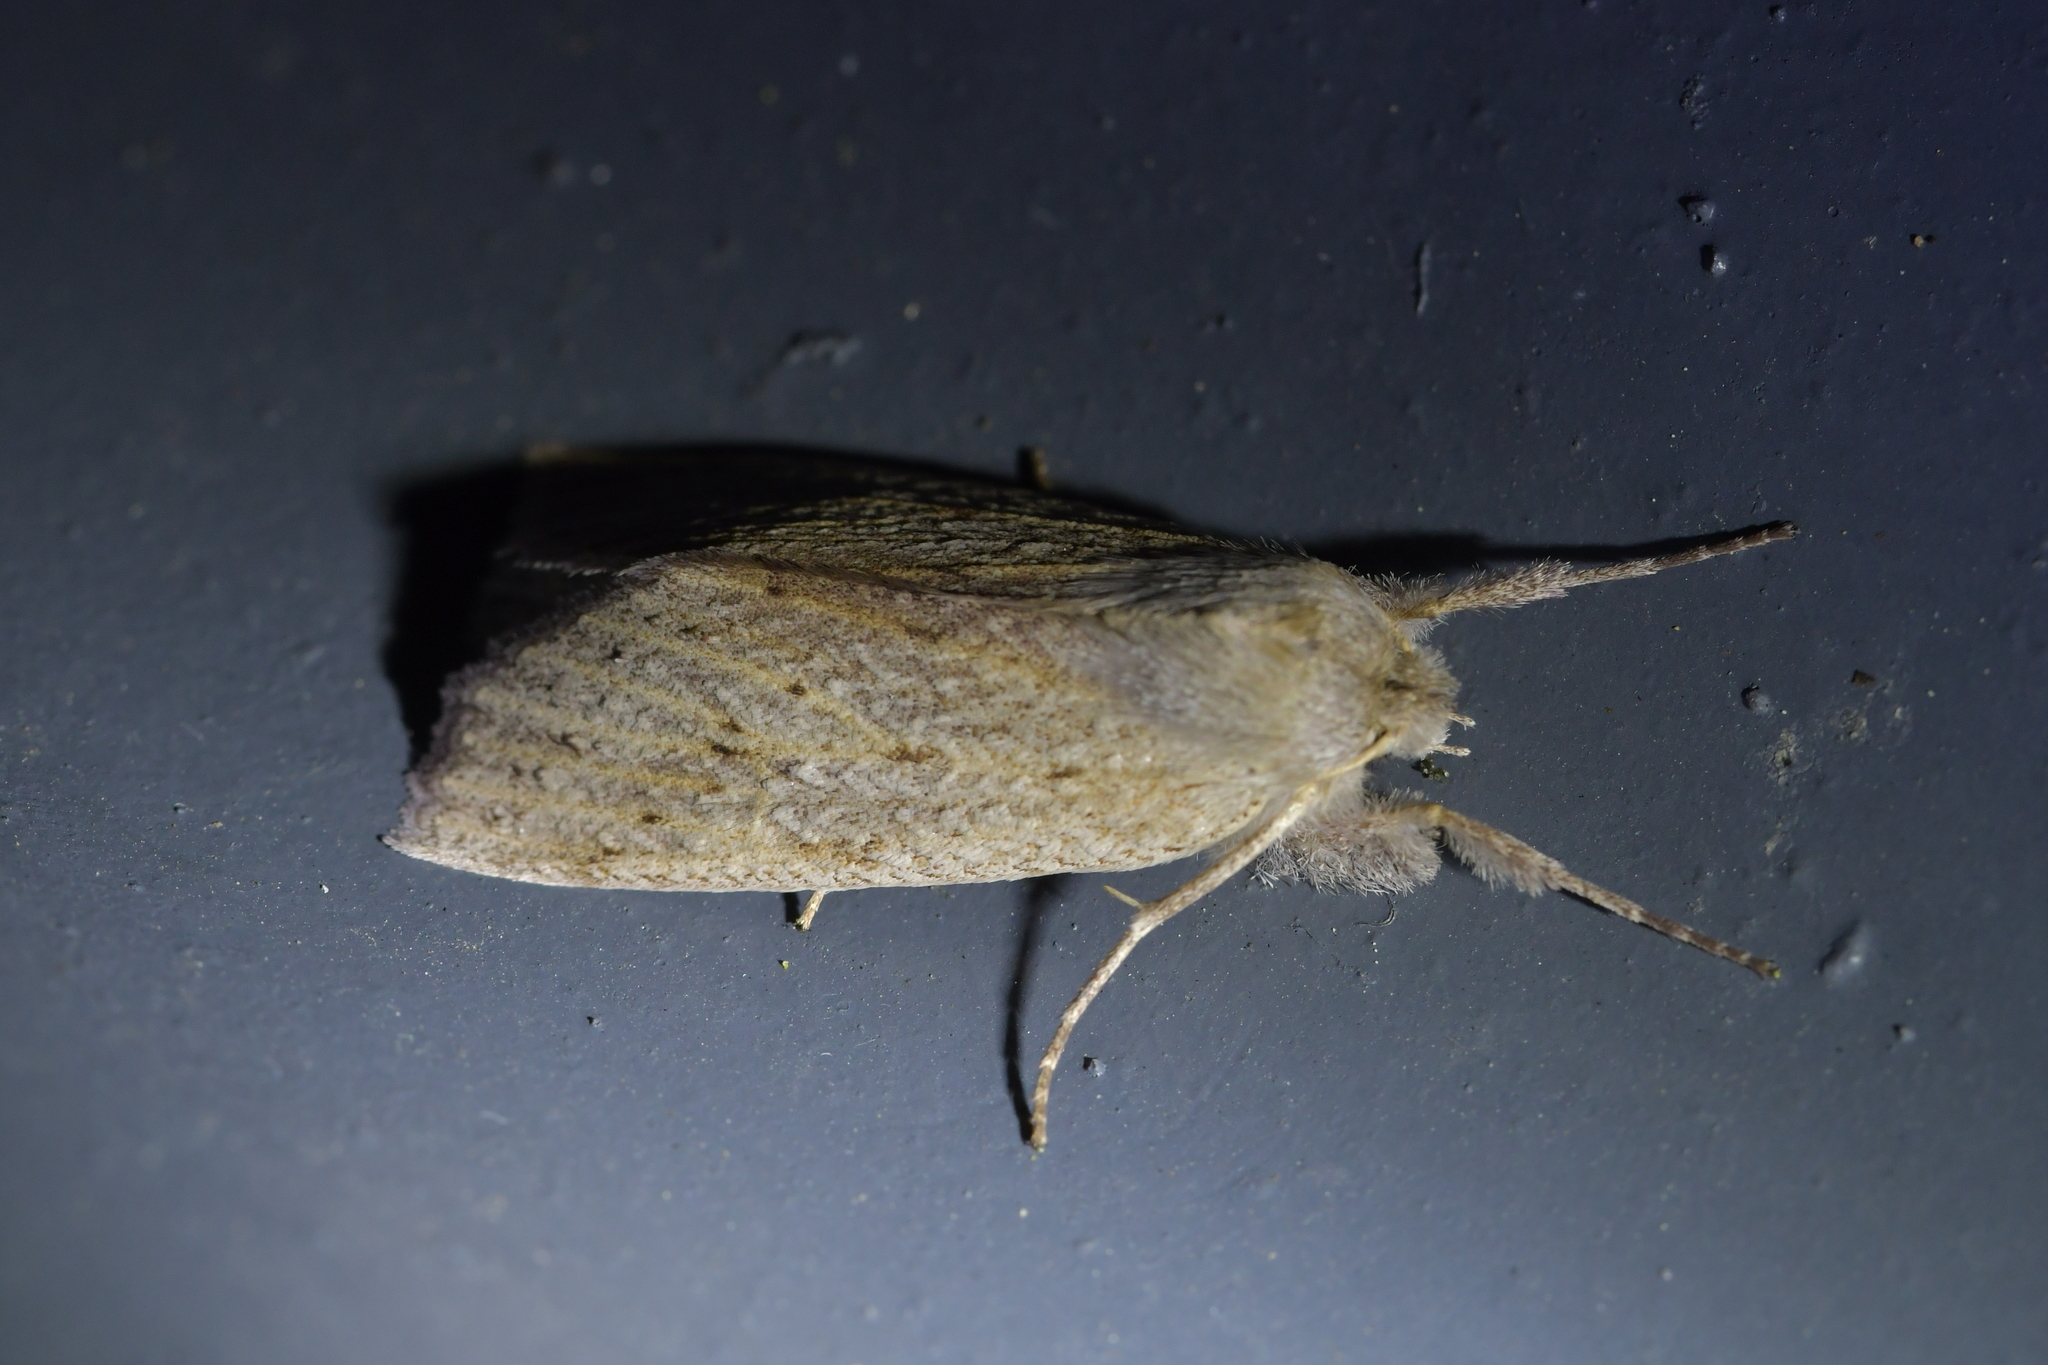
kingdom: Animalia
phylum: Arthropoda
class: Insecta
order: Lepidoptera
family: Geometridae
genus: Declana
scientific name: Declana leptomera
